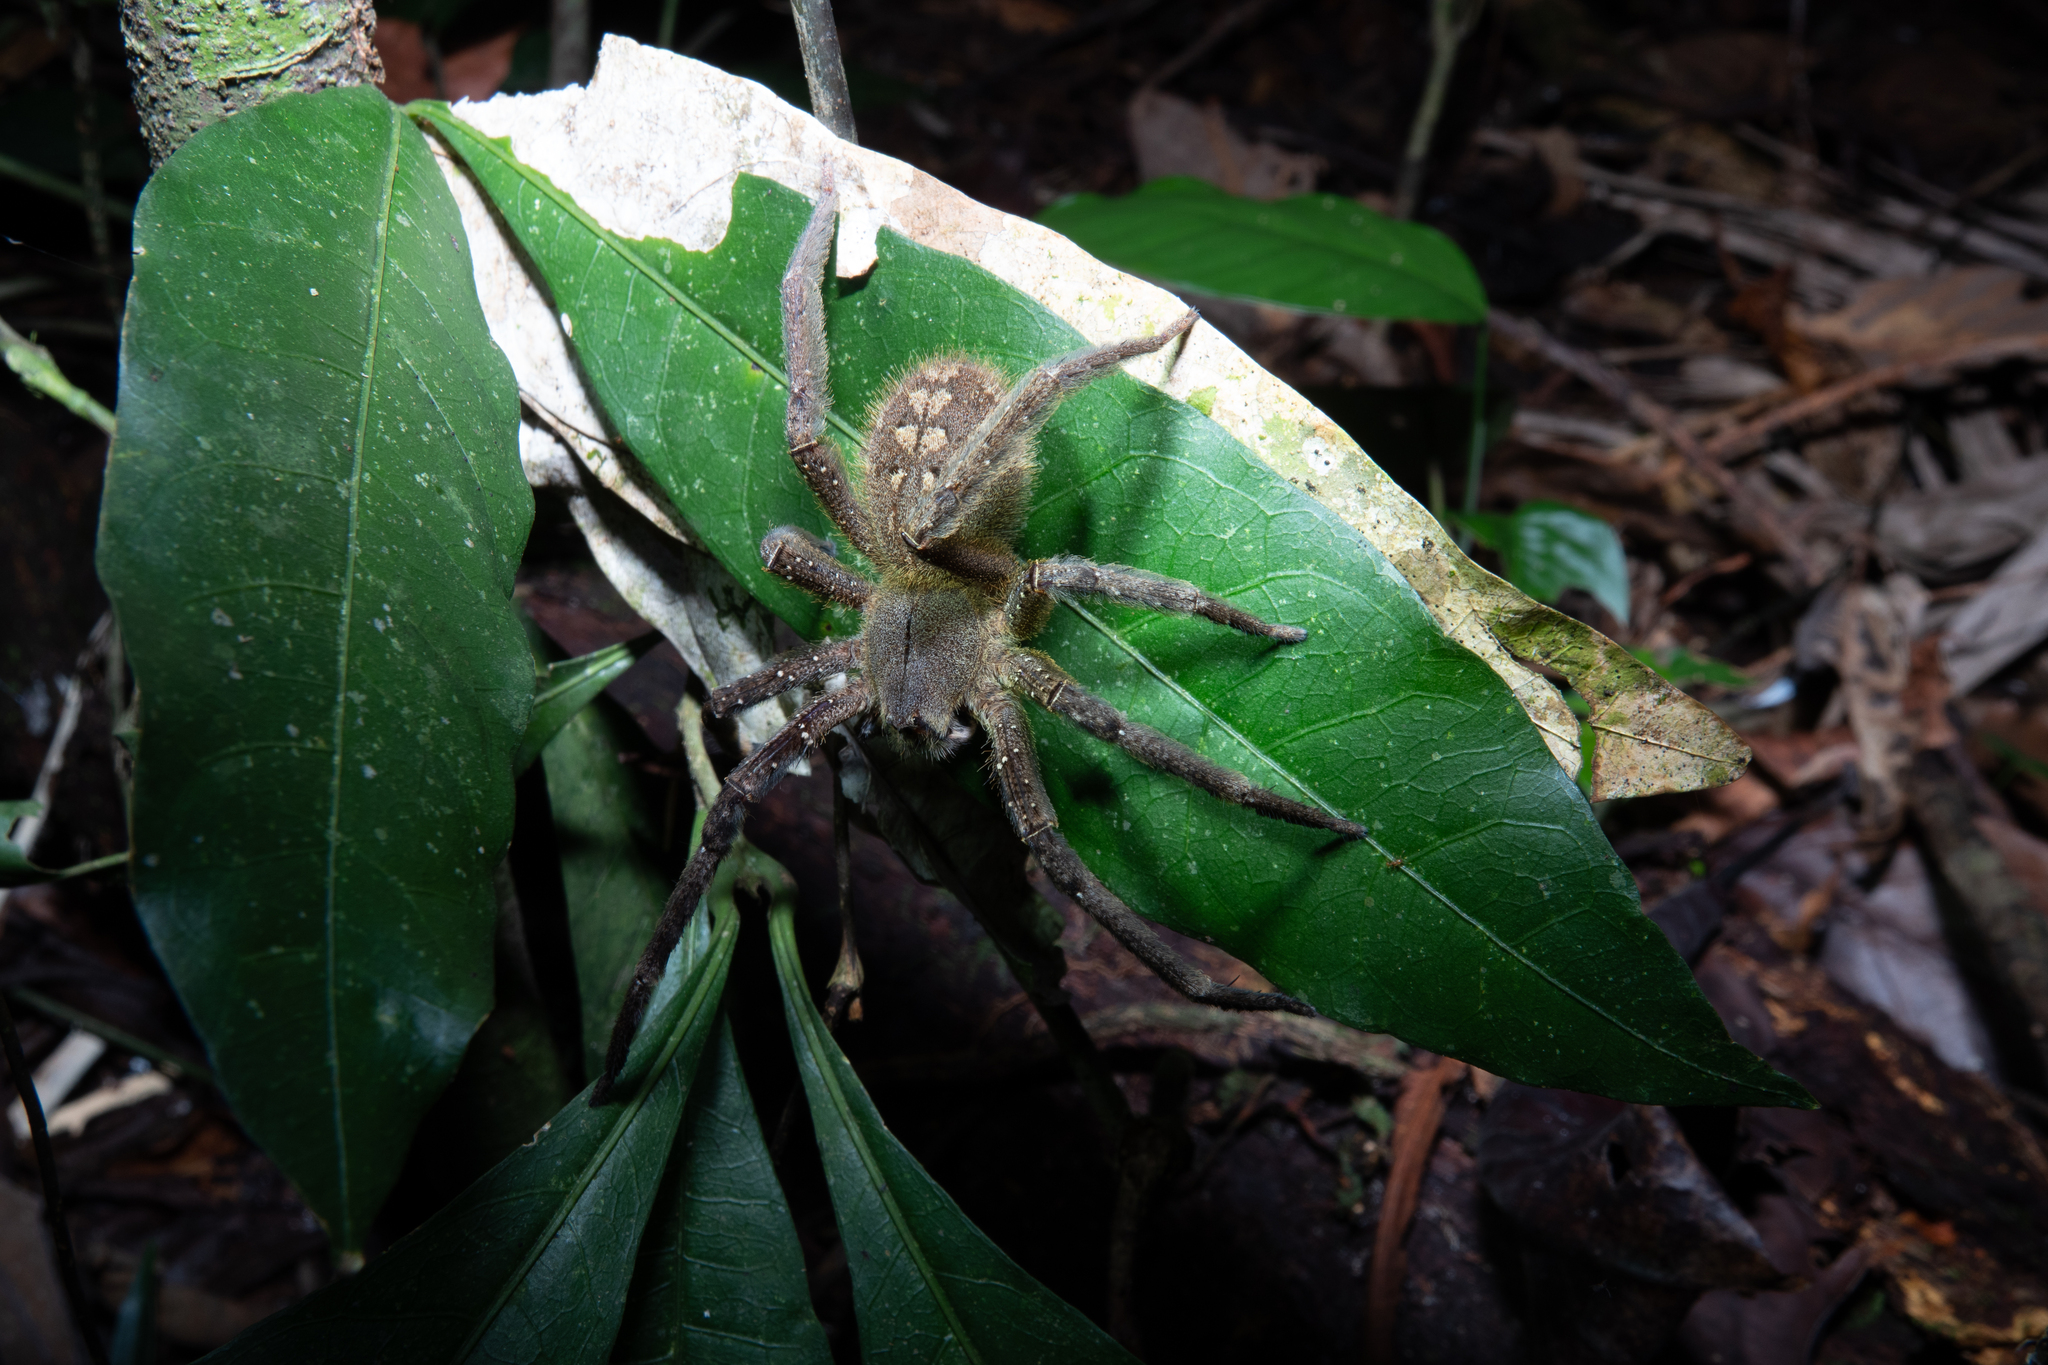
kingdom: Animalia
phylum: Arthropoda
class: Arachnida
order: Araneae
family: Ctenidae
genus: Phoneutria
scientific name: Phoneutria fera
